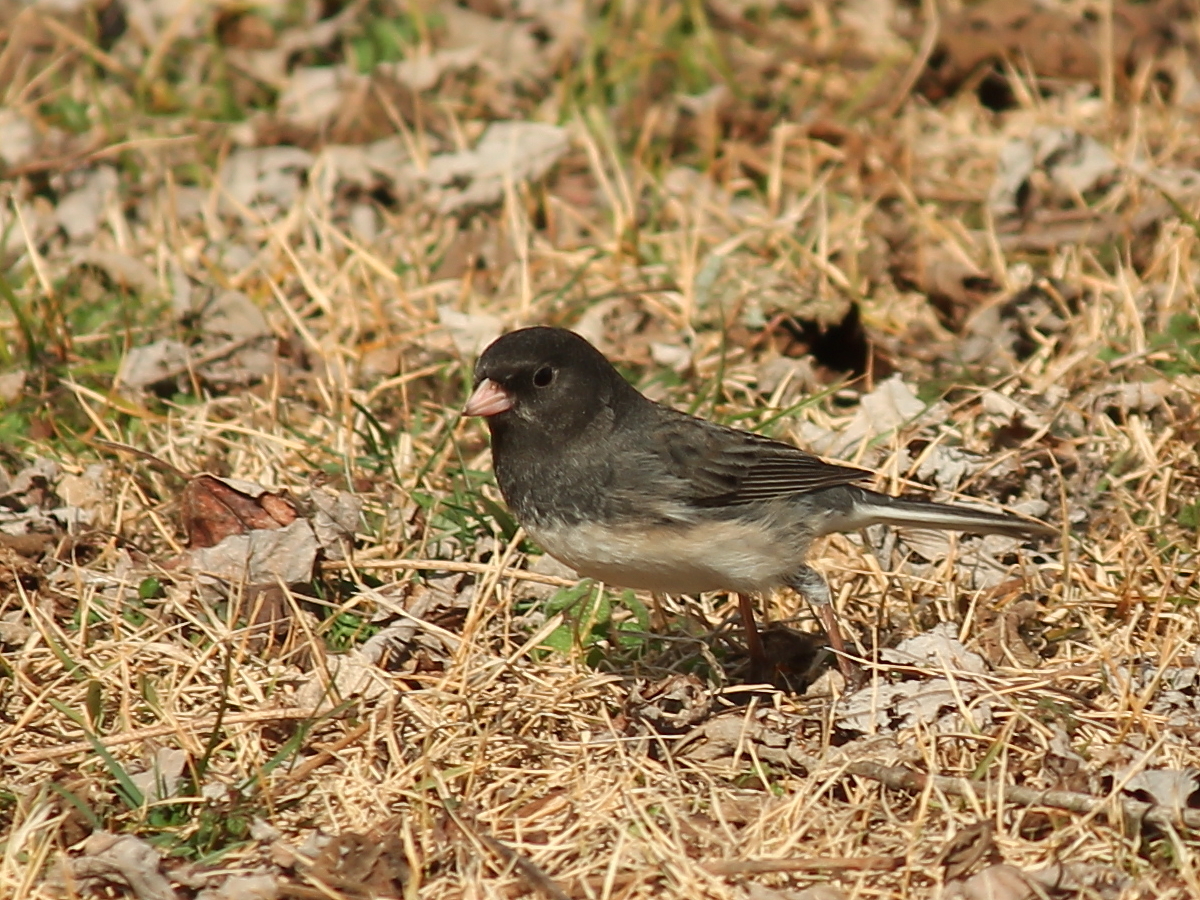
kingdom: Animalia
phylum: Chordata
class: Aves
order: Passeriformes
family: Passerellidae
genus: Junco
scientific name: Junco hyemalis
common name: Dark-eyed junco
